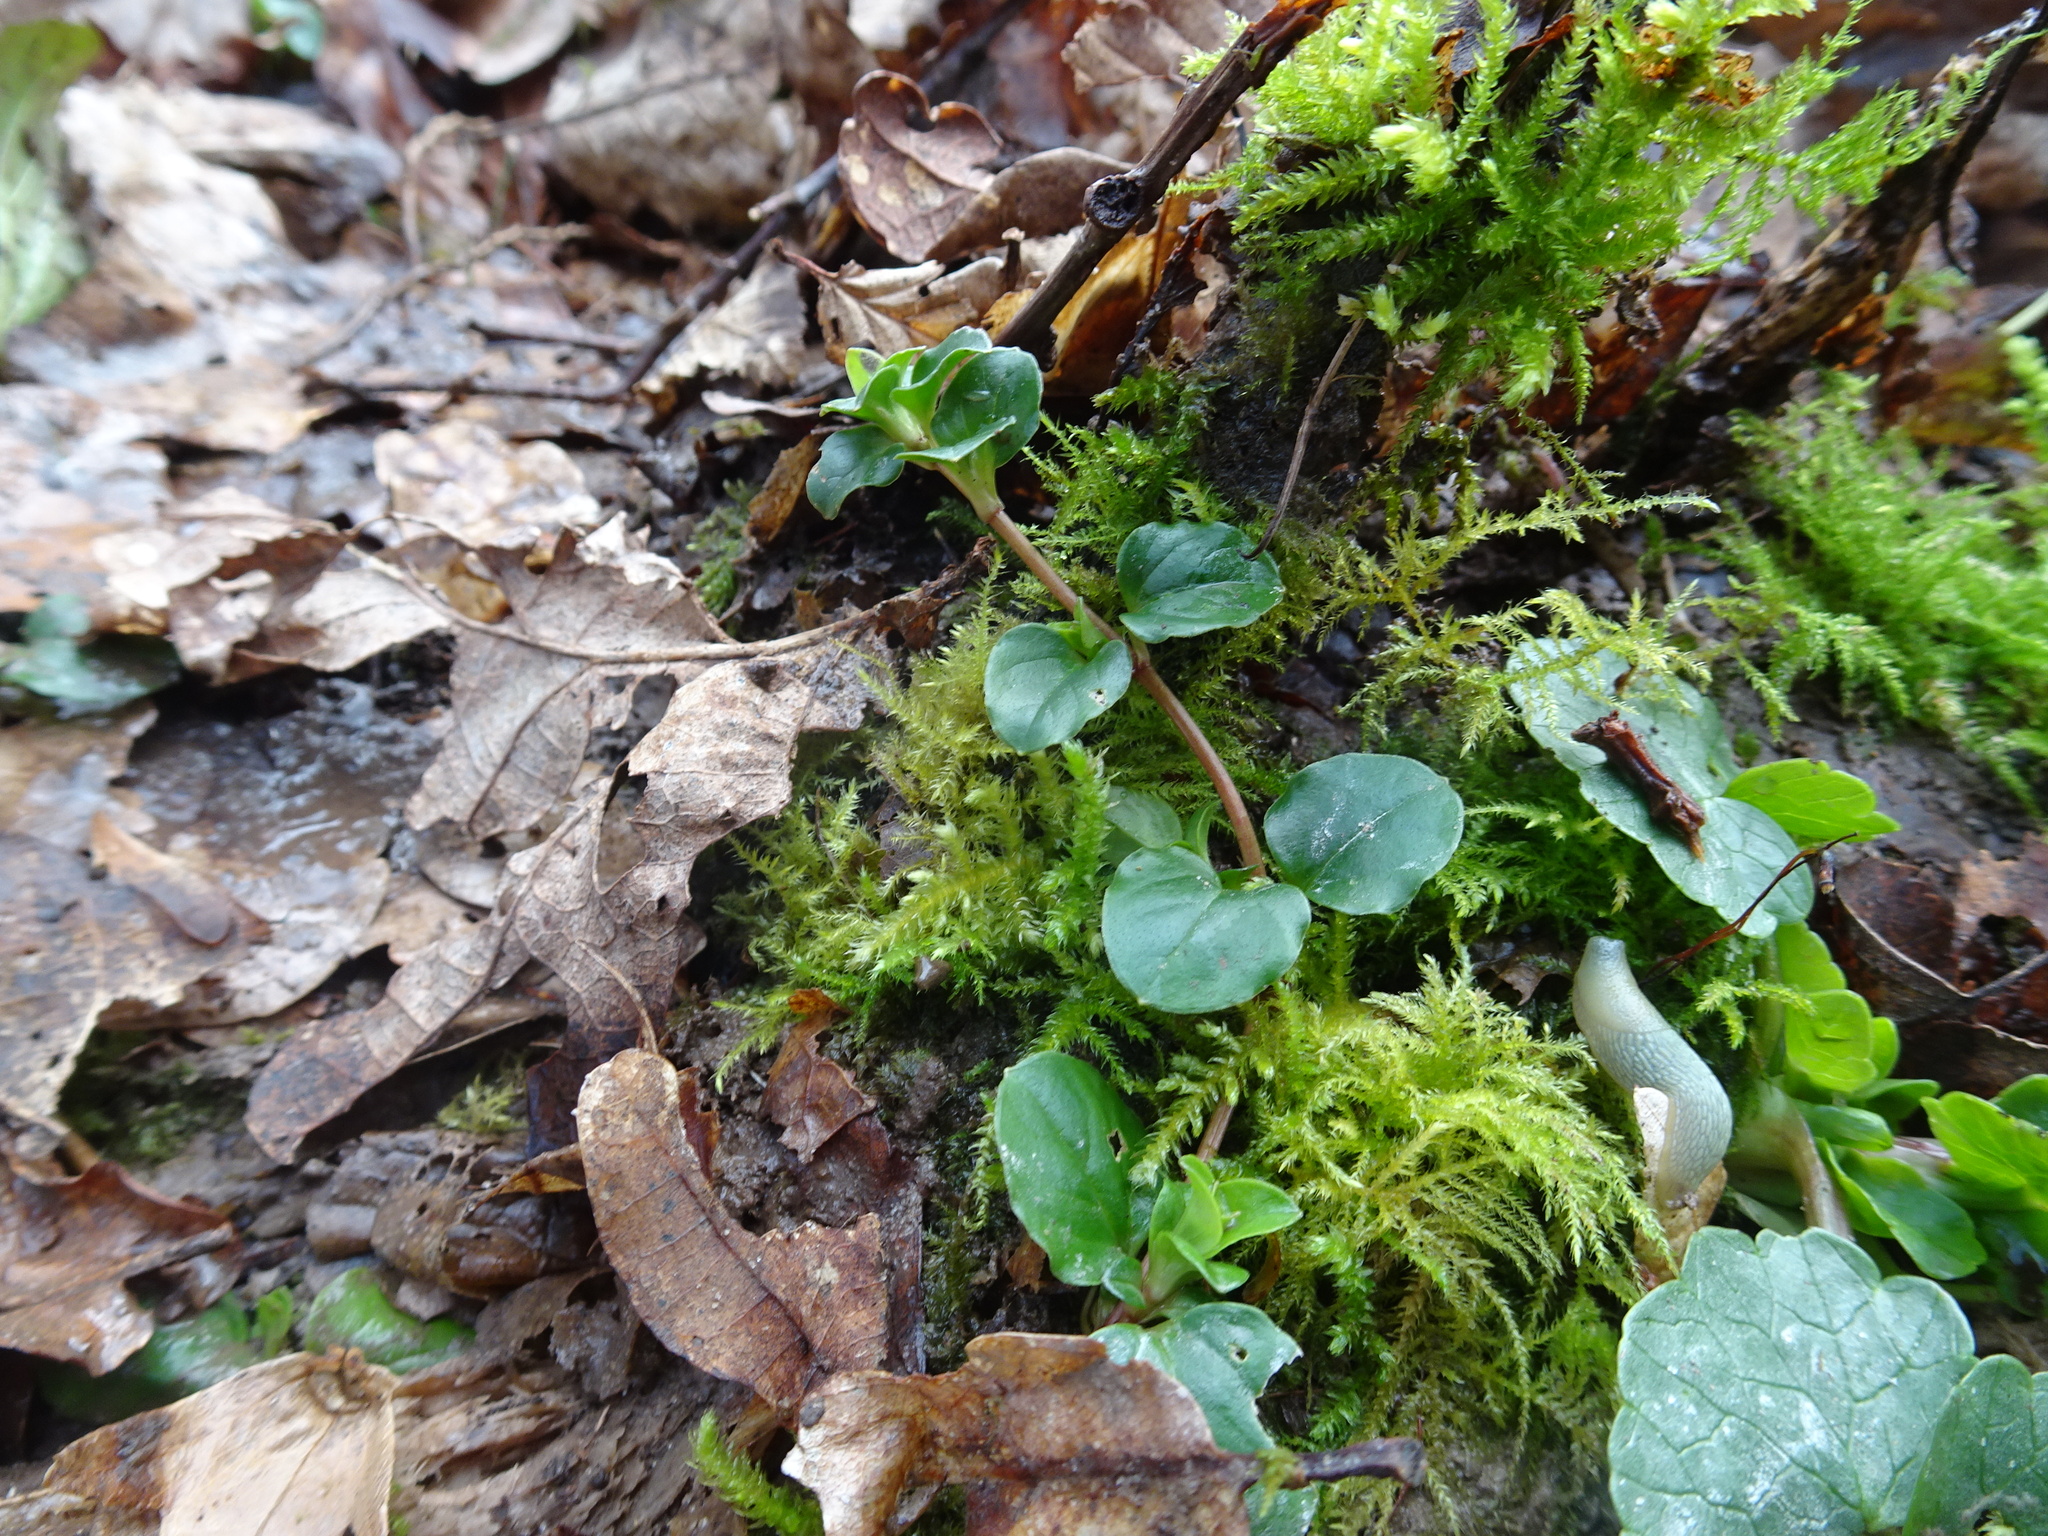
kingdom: Plantae
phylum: Tracheophyta
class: Magnoliopsida
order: Ericales
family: Primulaceae
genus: Lysimachia
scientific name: Lysimachia nummularia
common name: Moneywort
